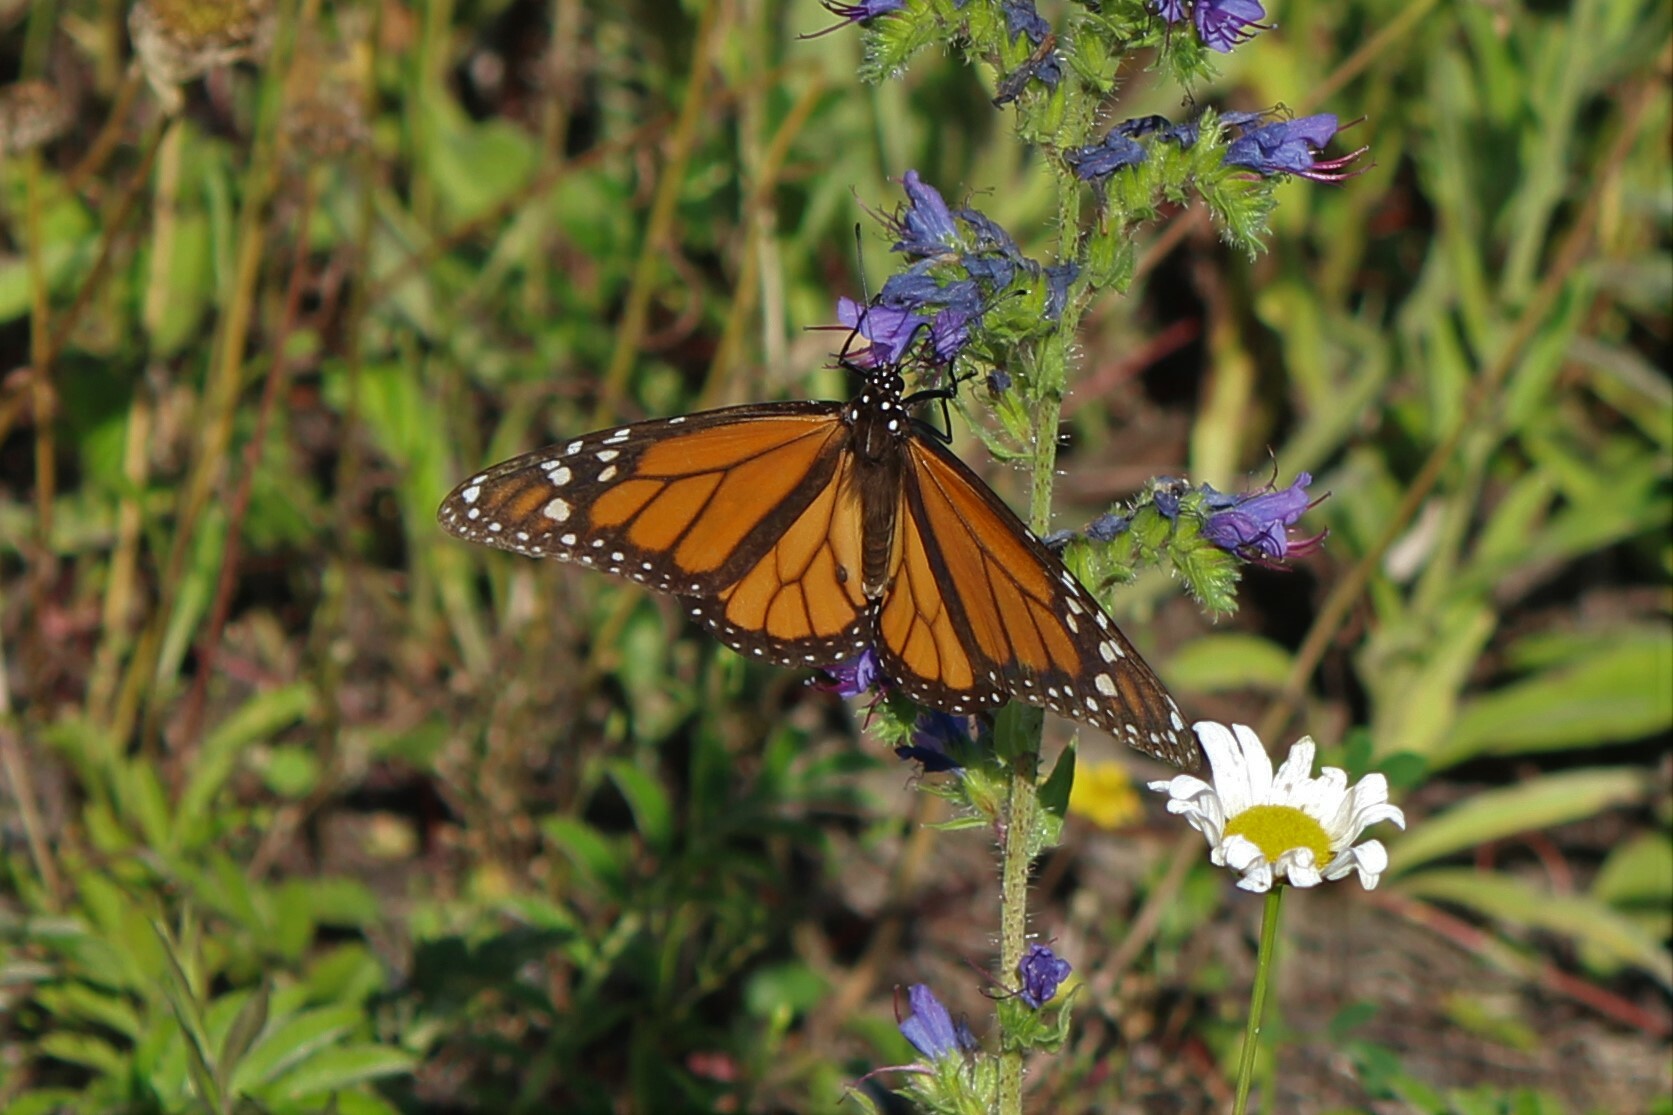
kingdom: Animalia
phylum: Arthropoda
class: Insecta
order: Lepidoptera
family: Nymphalidae
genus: Danaus
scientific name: Danaus plexippus
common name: Monarch
